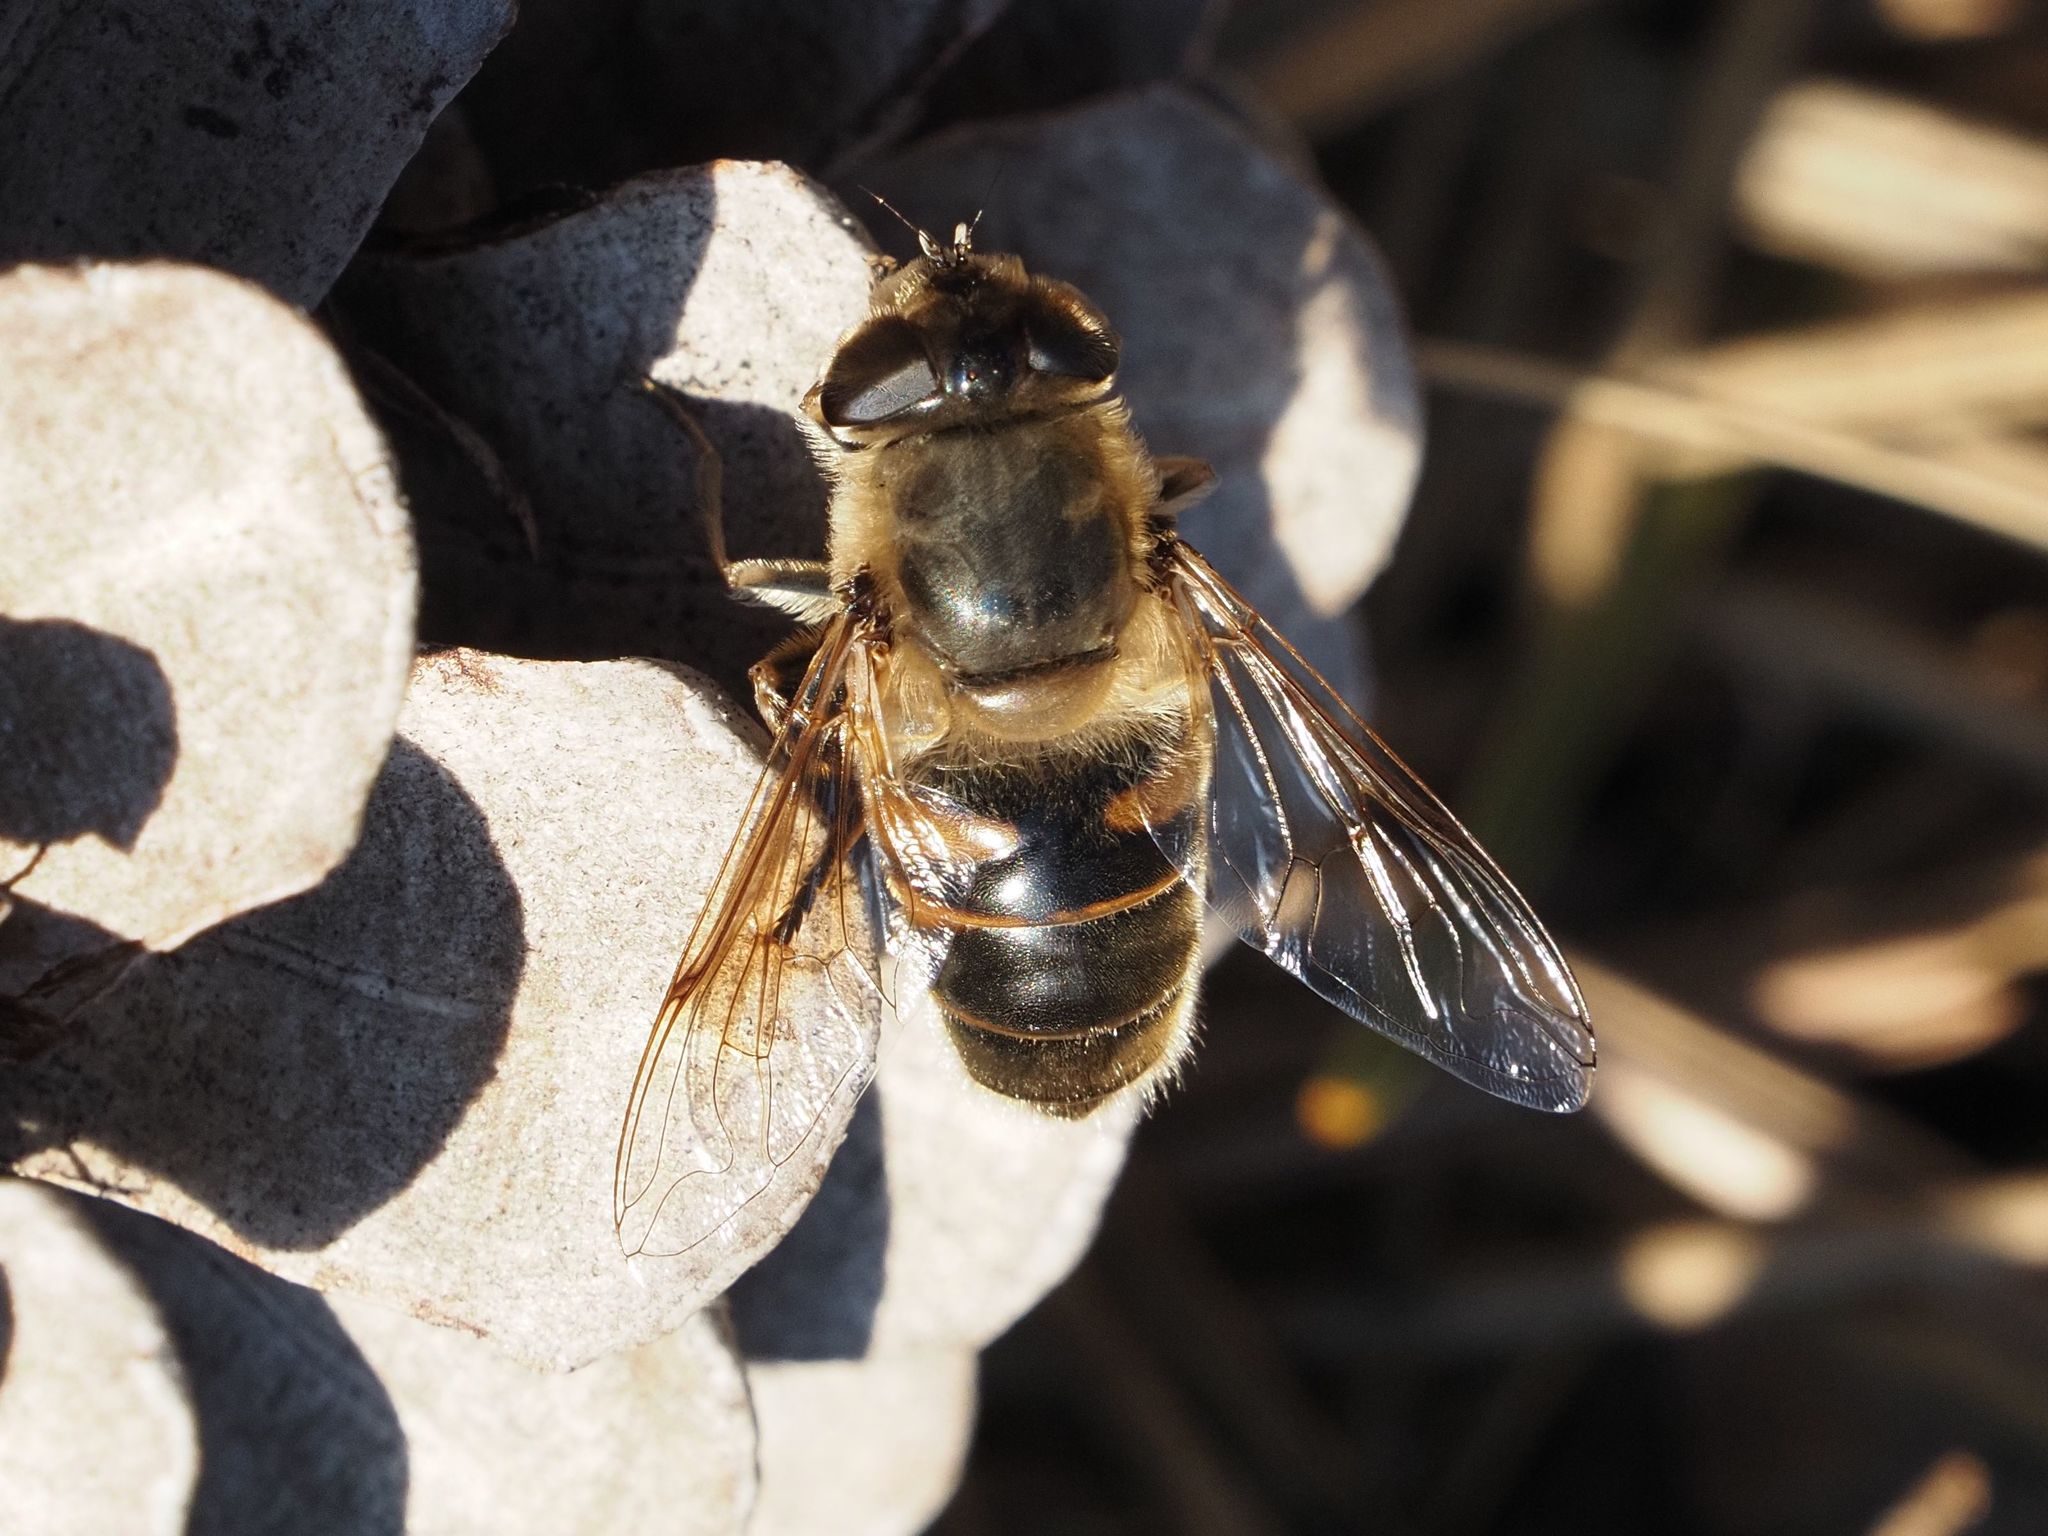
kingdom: Animalia
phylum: Arthropoda
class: Insecta
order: Diptera
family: Syrphidae
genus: Eristalis
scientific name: Eristalis tenax
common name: Drone fly
